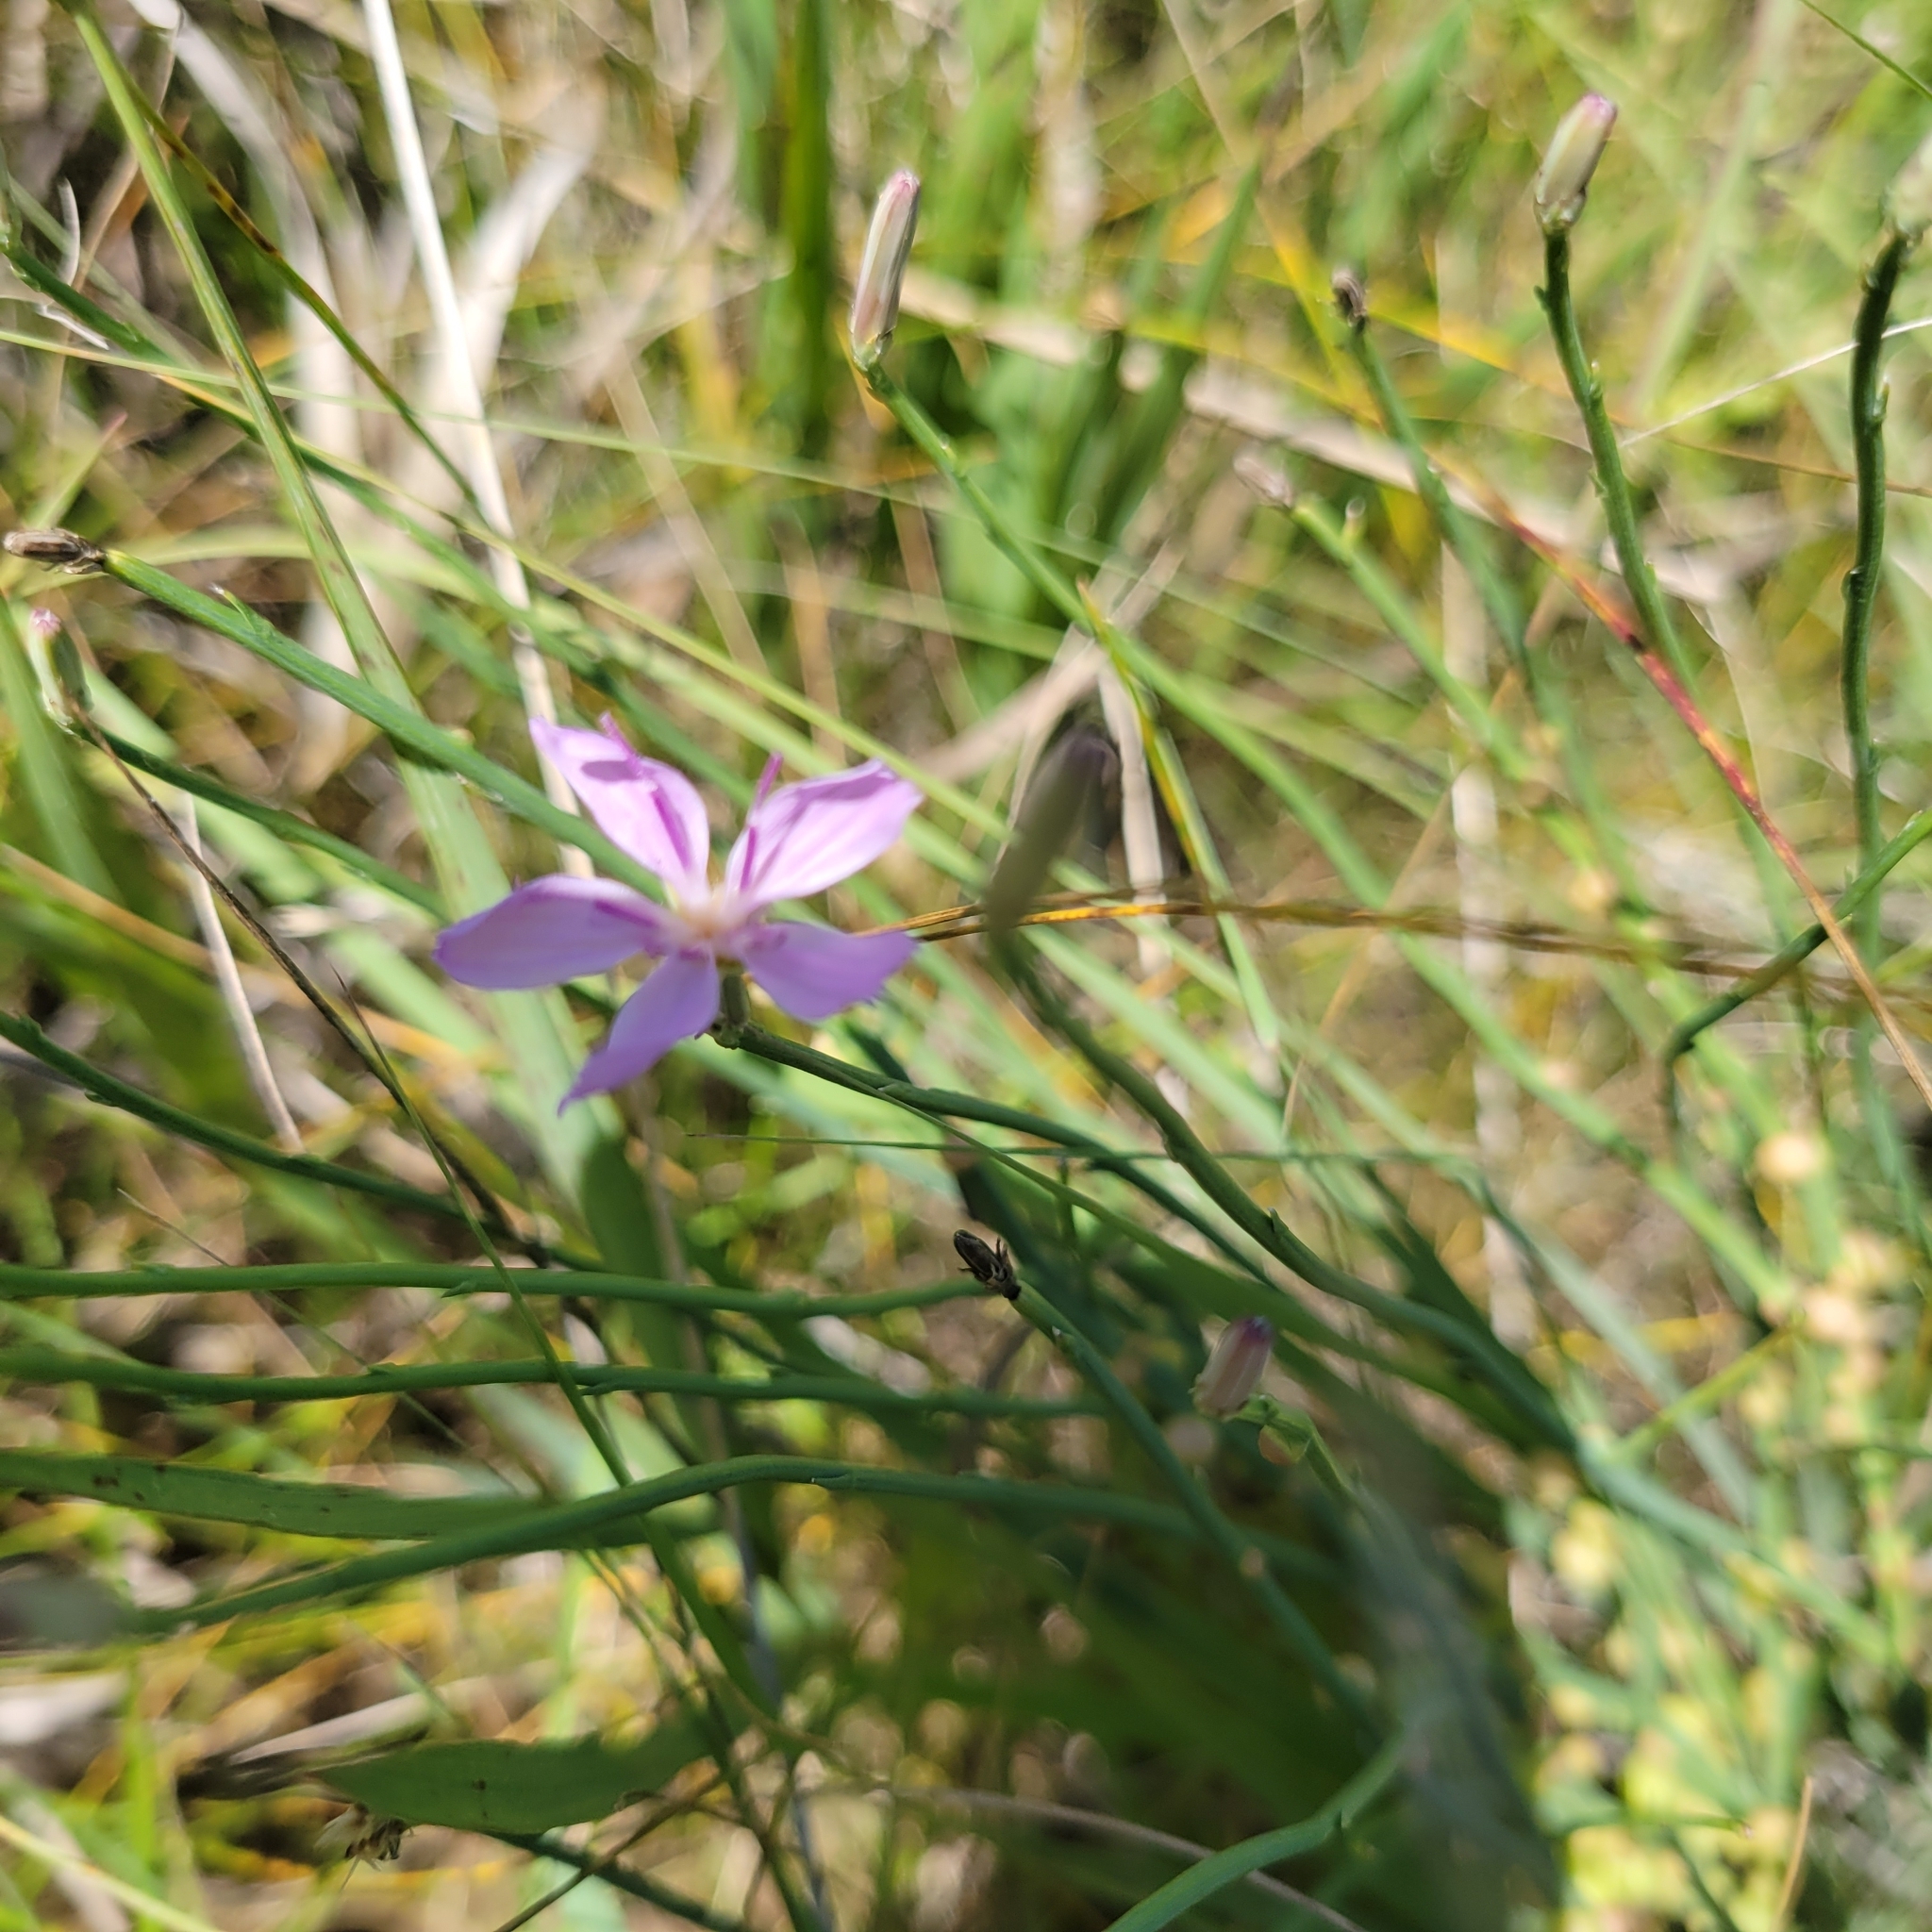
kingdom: Plantae
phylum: Tracheophyta
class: Magnoliopsida
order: Asterales
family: Asteraceae
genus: Lygodesmia
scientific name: Lygodesmia juncea
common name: Common skeletonweed
